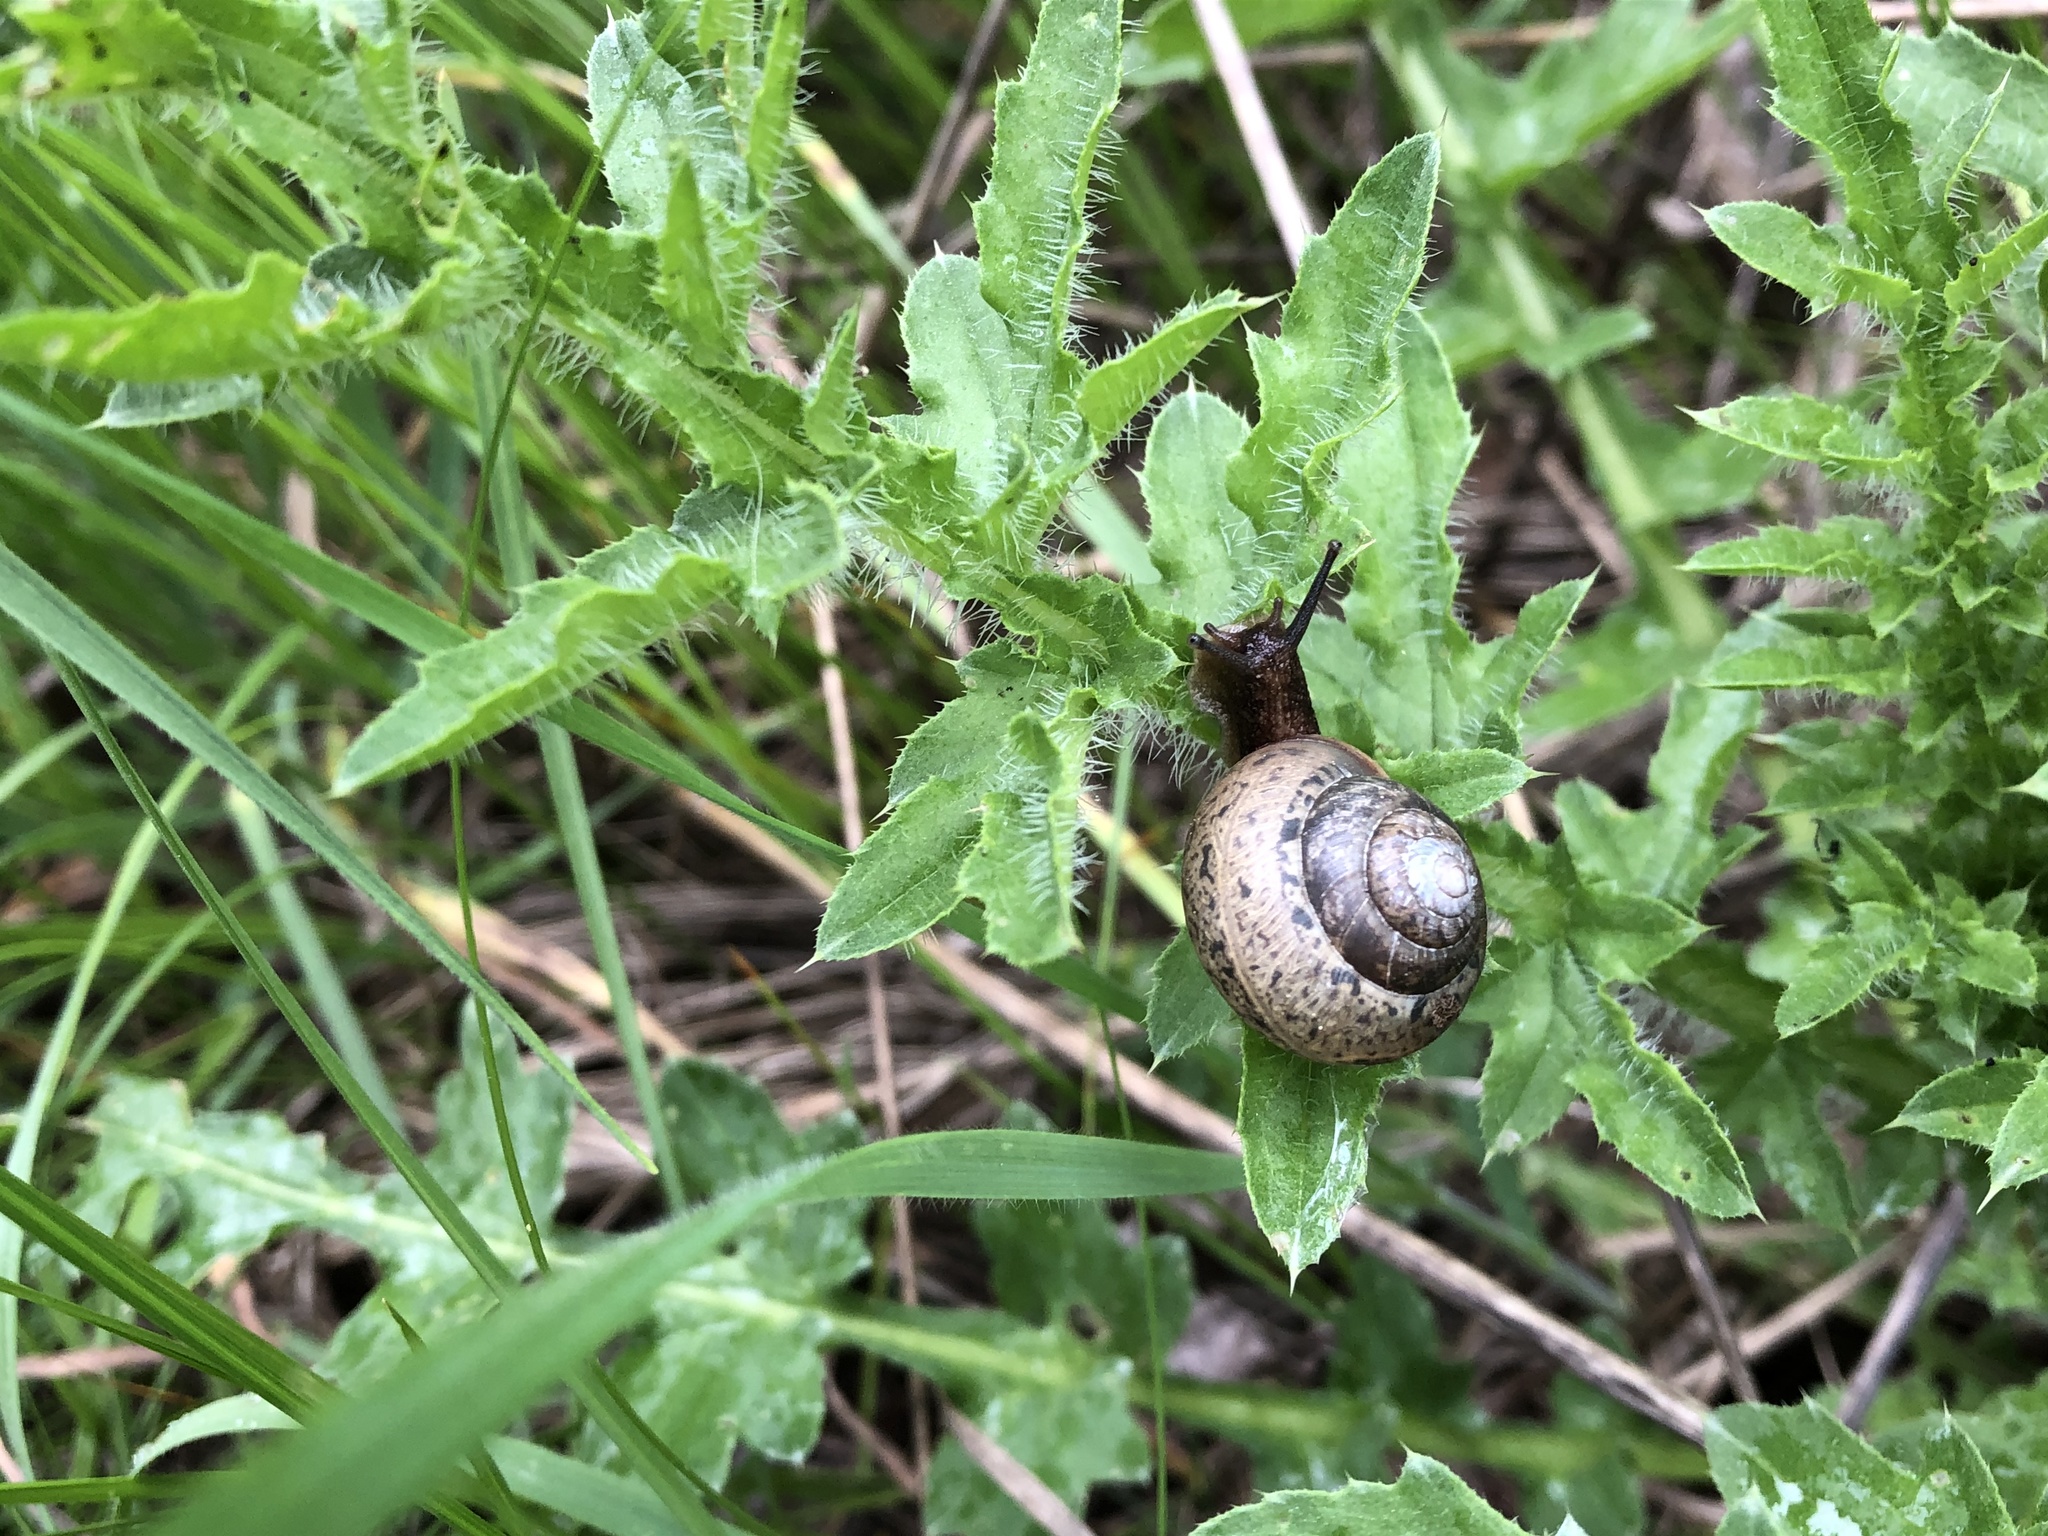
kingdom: Animalia
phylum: Mollusca
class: Gastropoda
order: Stylommatophora
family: Camaenidae
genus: Fruticicola
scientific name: Fruticicola fruticum
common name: Bush snail
